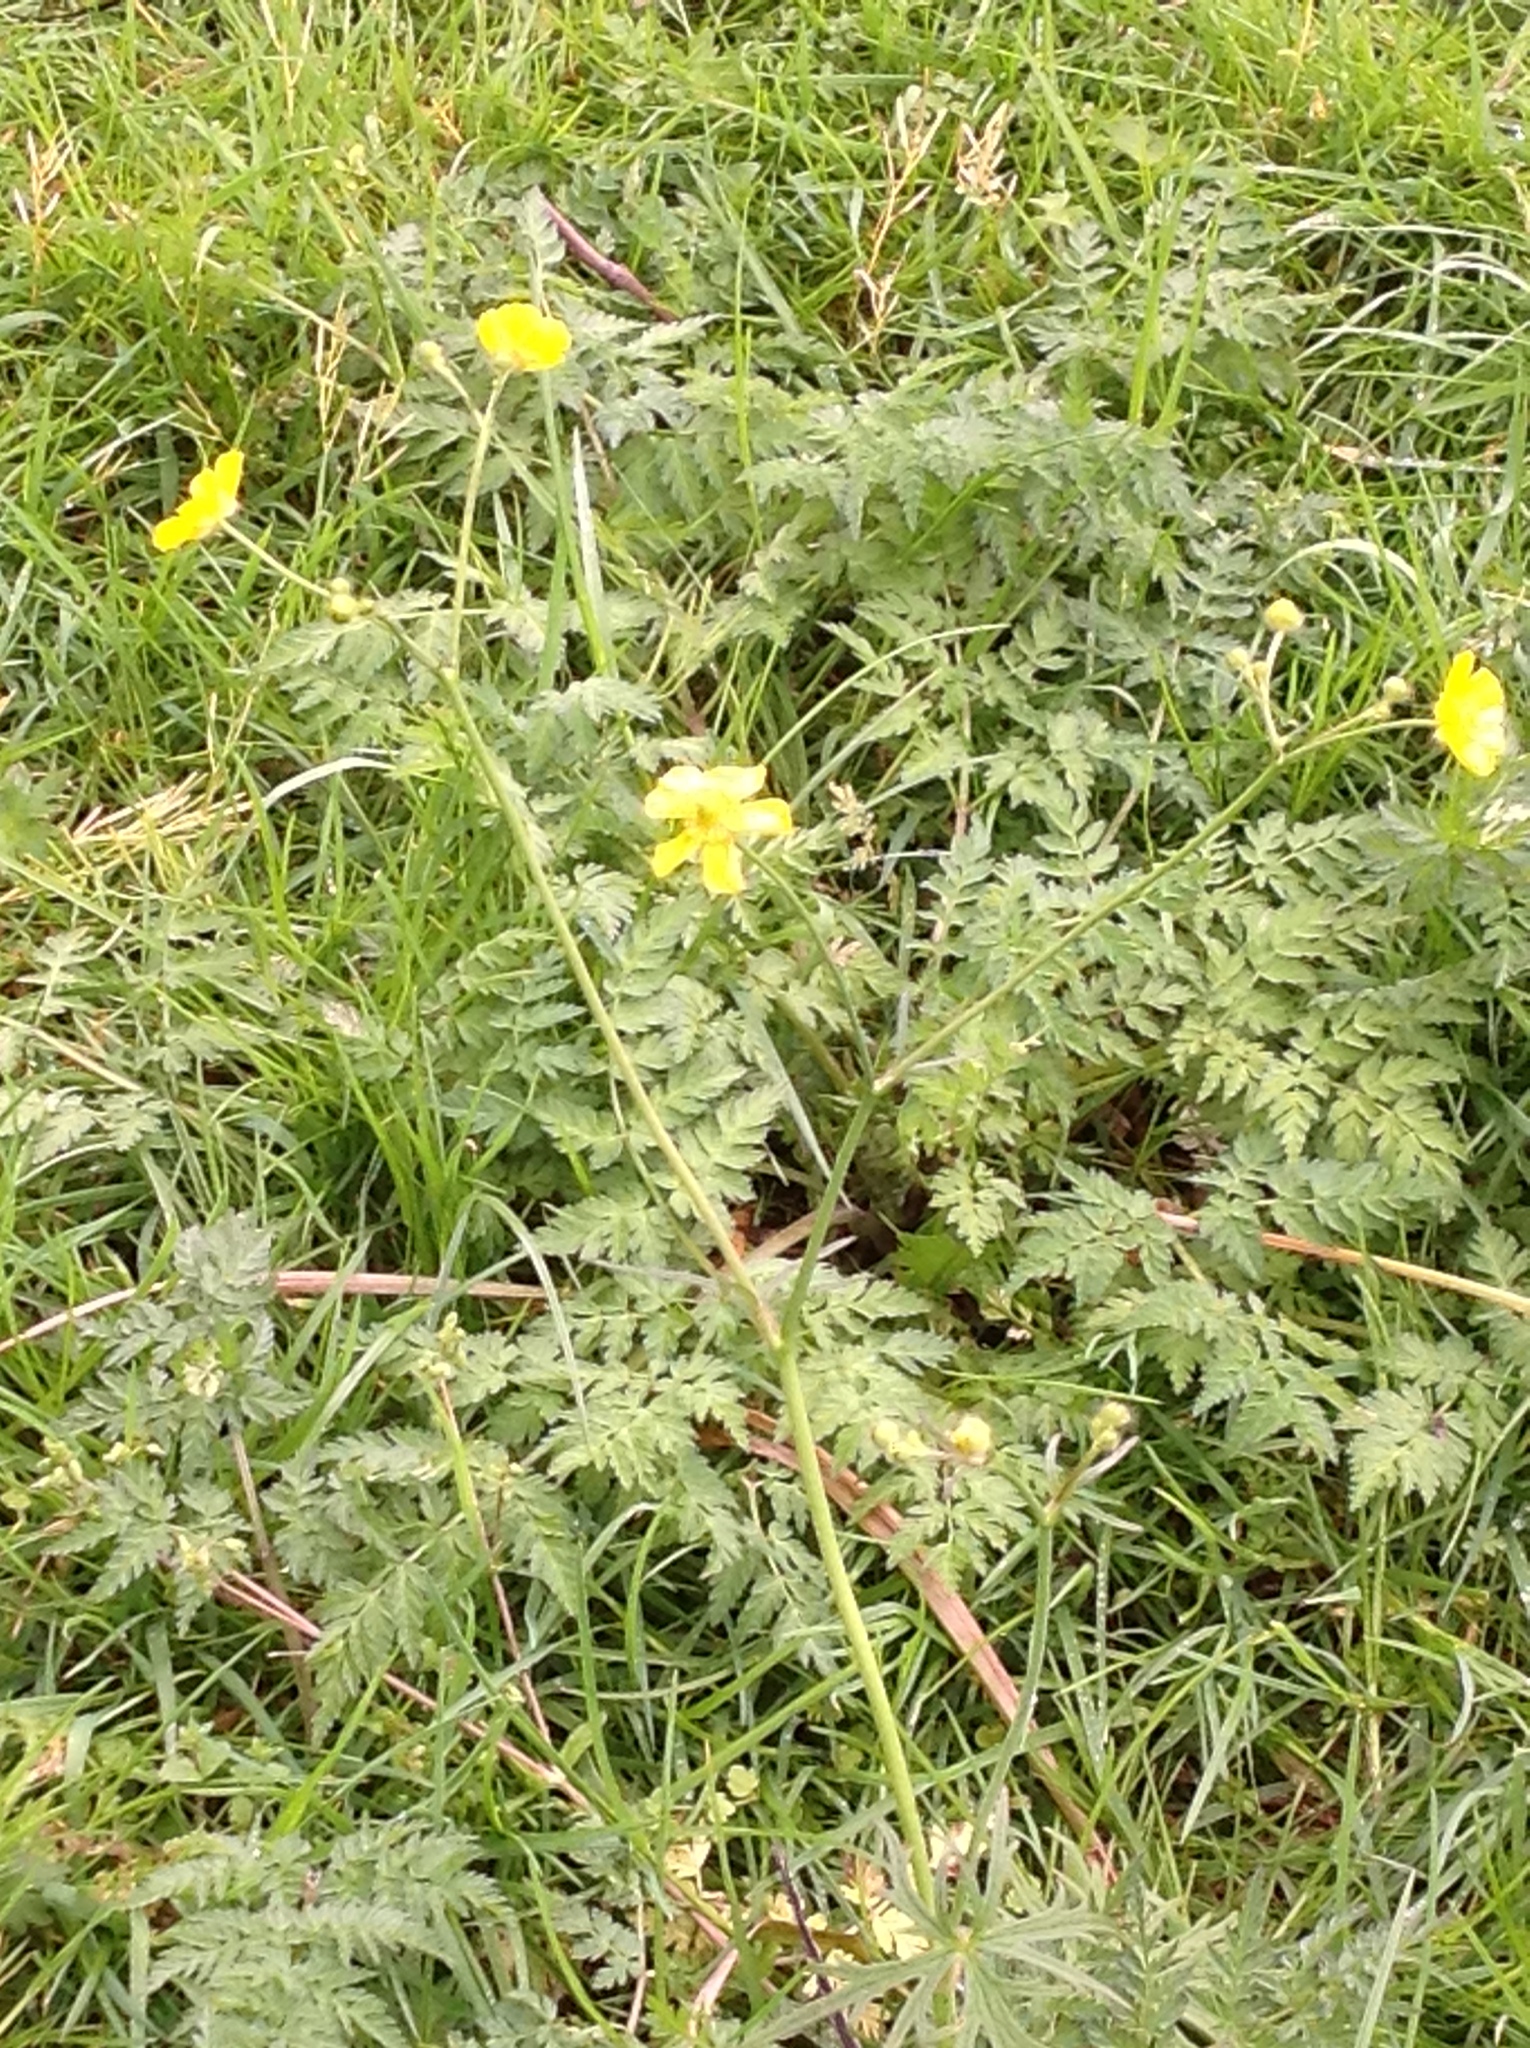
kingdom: Plantae
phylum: Tracheophyta
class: Magnoliopsida
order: Ranunculales
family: Ranunculaceae
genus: Ranunculus
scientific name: Ranunculus acris
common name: Meadow buttercup
